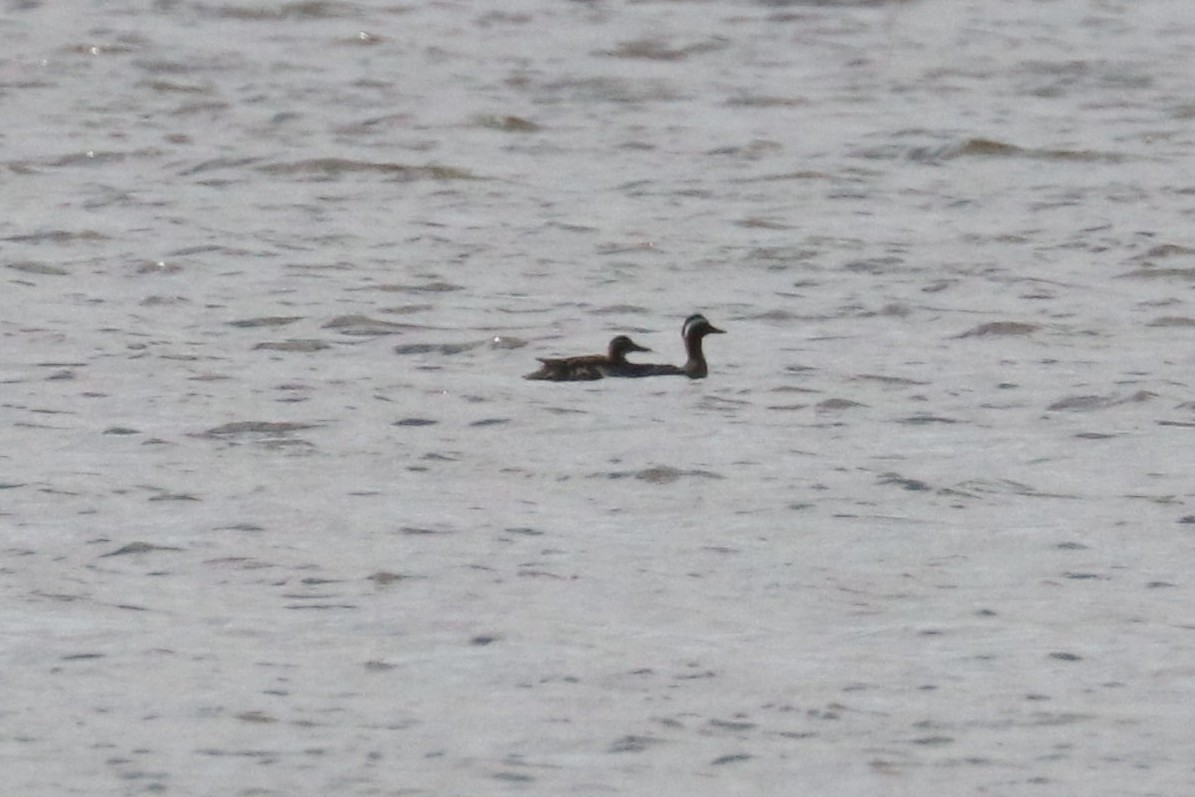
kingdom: Animalia
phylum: Chordata
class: Aves
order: Anseriformes
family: Anatidae
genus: Spatula
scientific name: Spatula querquedula
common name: Garganey
